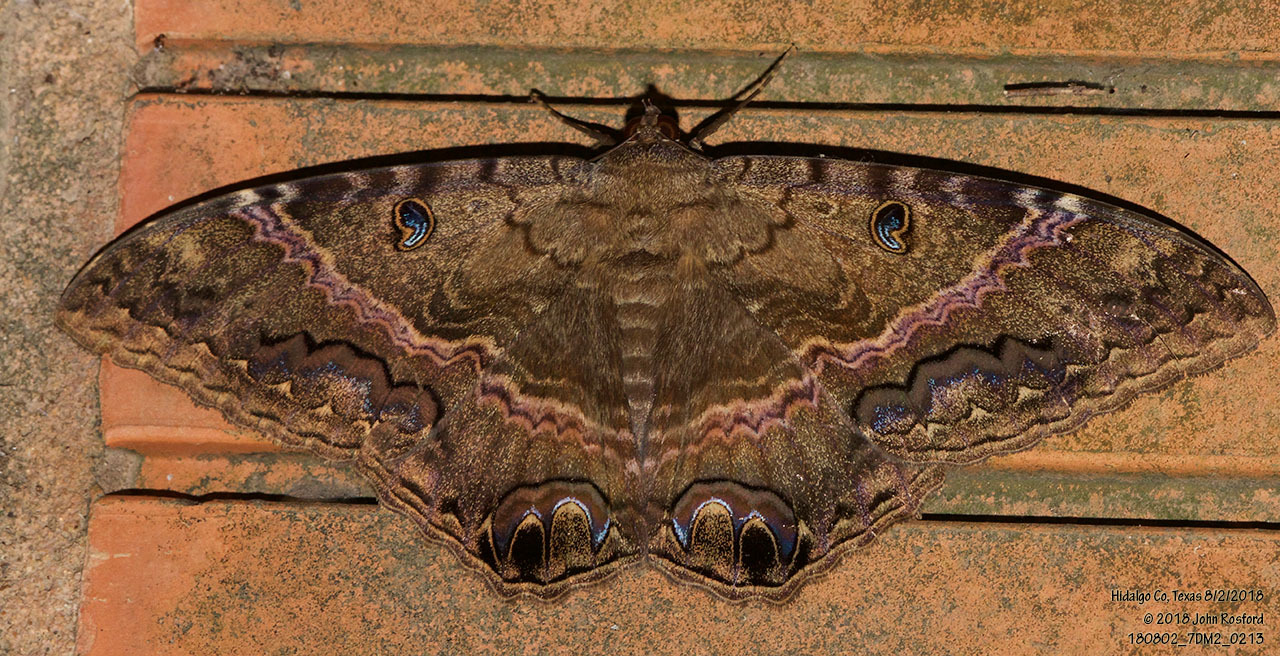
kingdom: Animalia
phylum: Arthropoda
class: Insecta
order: Lepidoptera
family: Erebidae
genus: Ascalapha
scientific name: Ascalapha odorata
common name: Black witch
